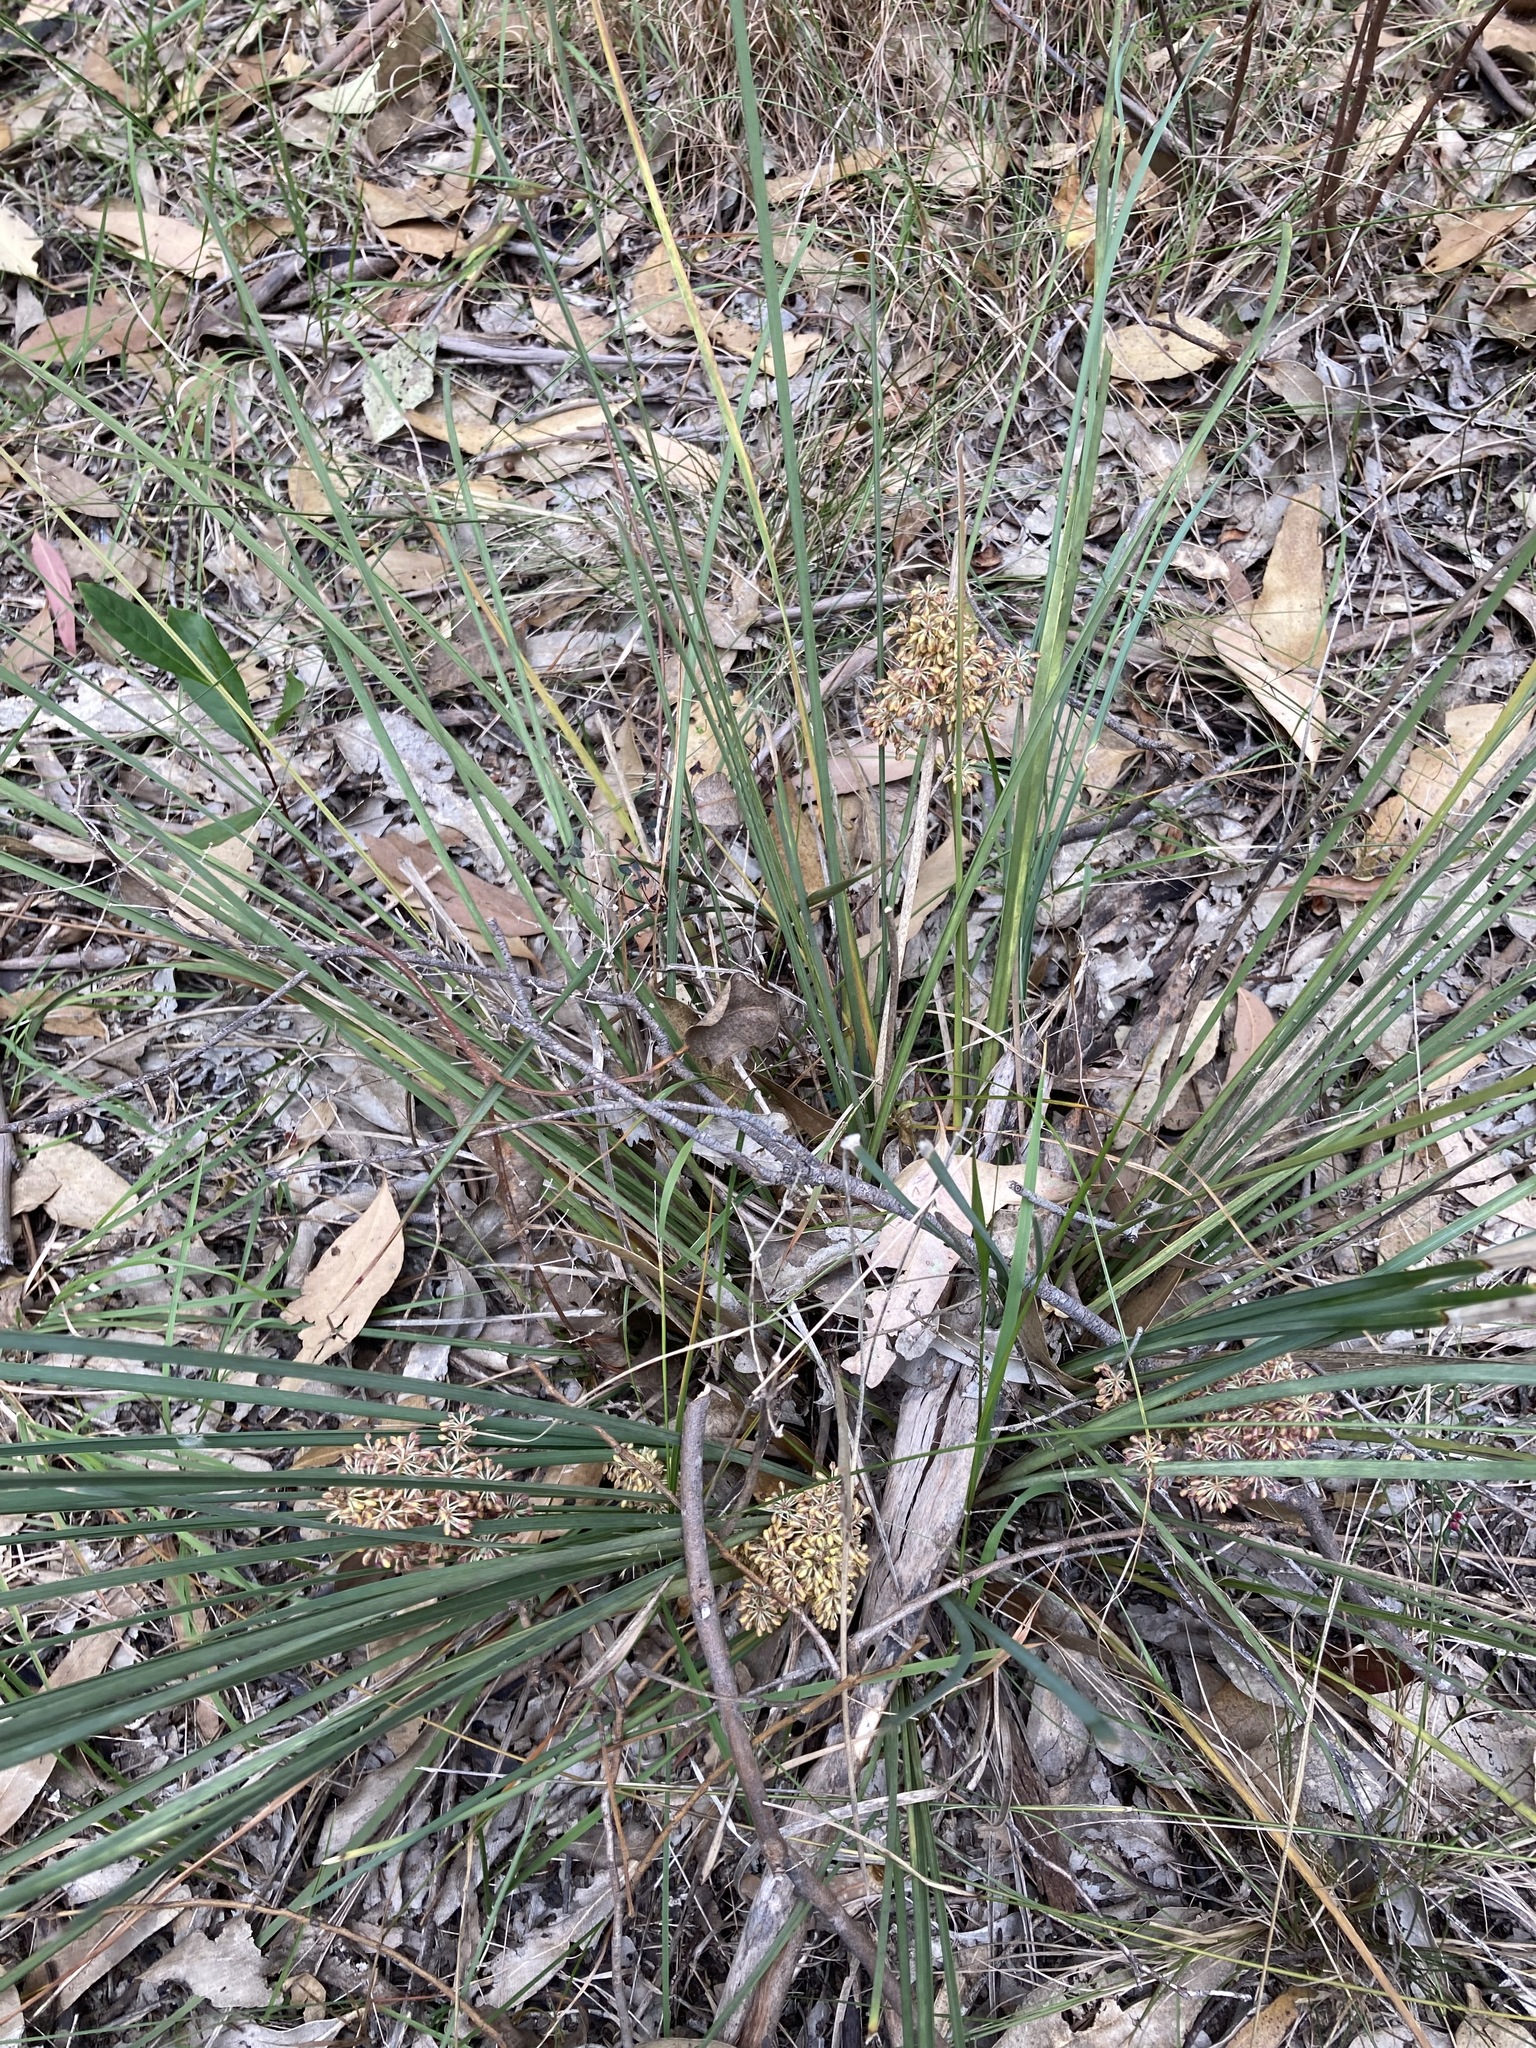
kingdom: Plantae
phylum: Tracheophyta
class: Liliopsida
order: Asparagales
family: Asparagaceae
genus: Lomandra
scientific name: Lomandra multiflora
